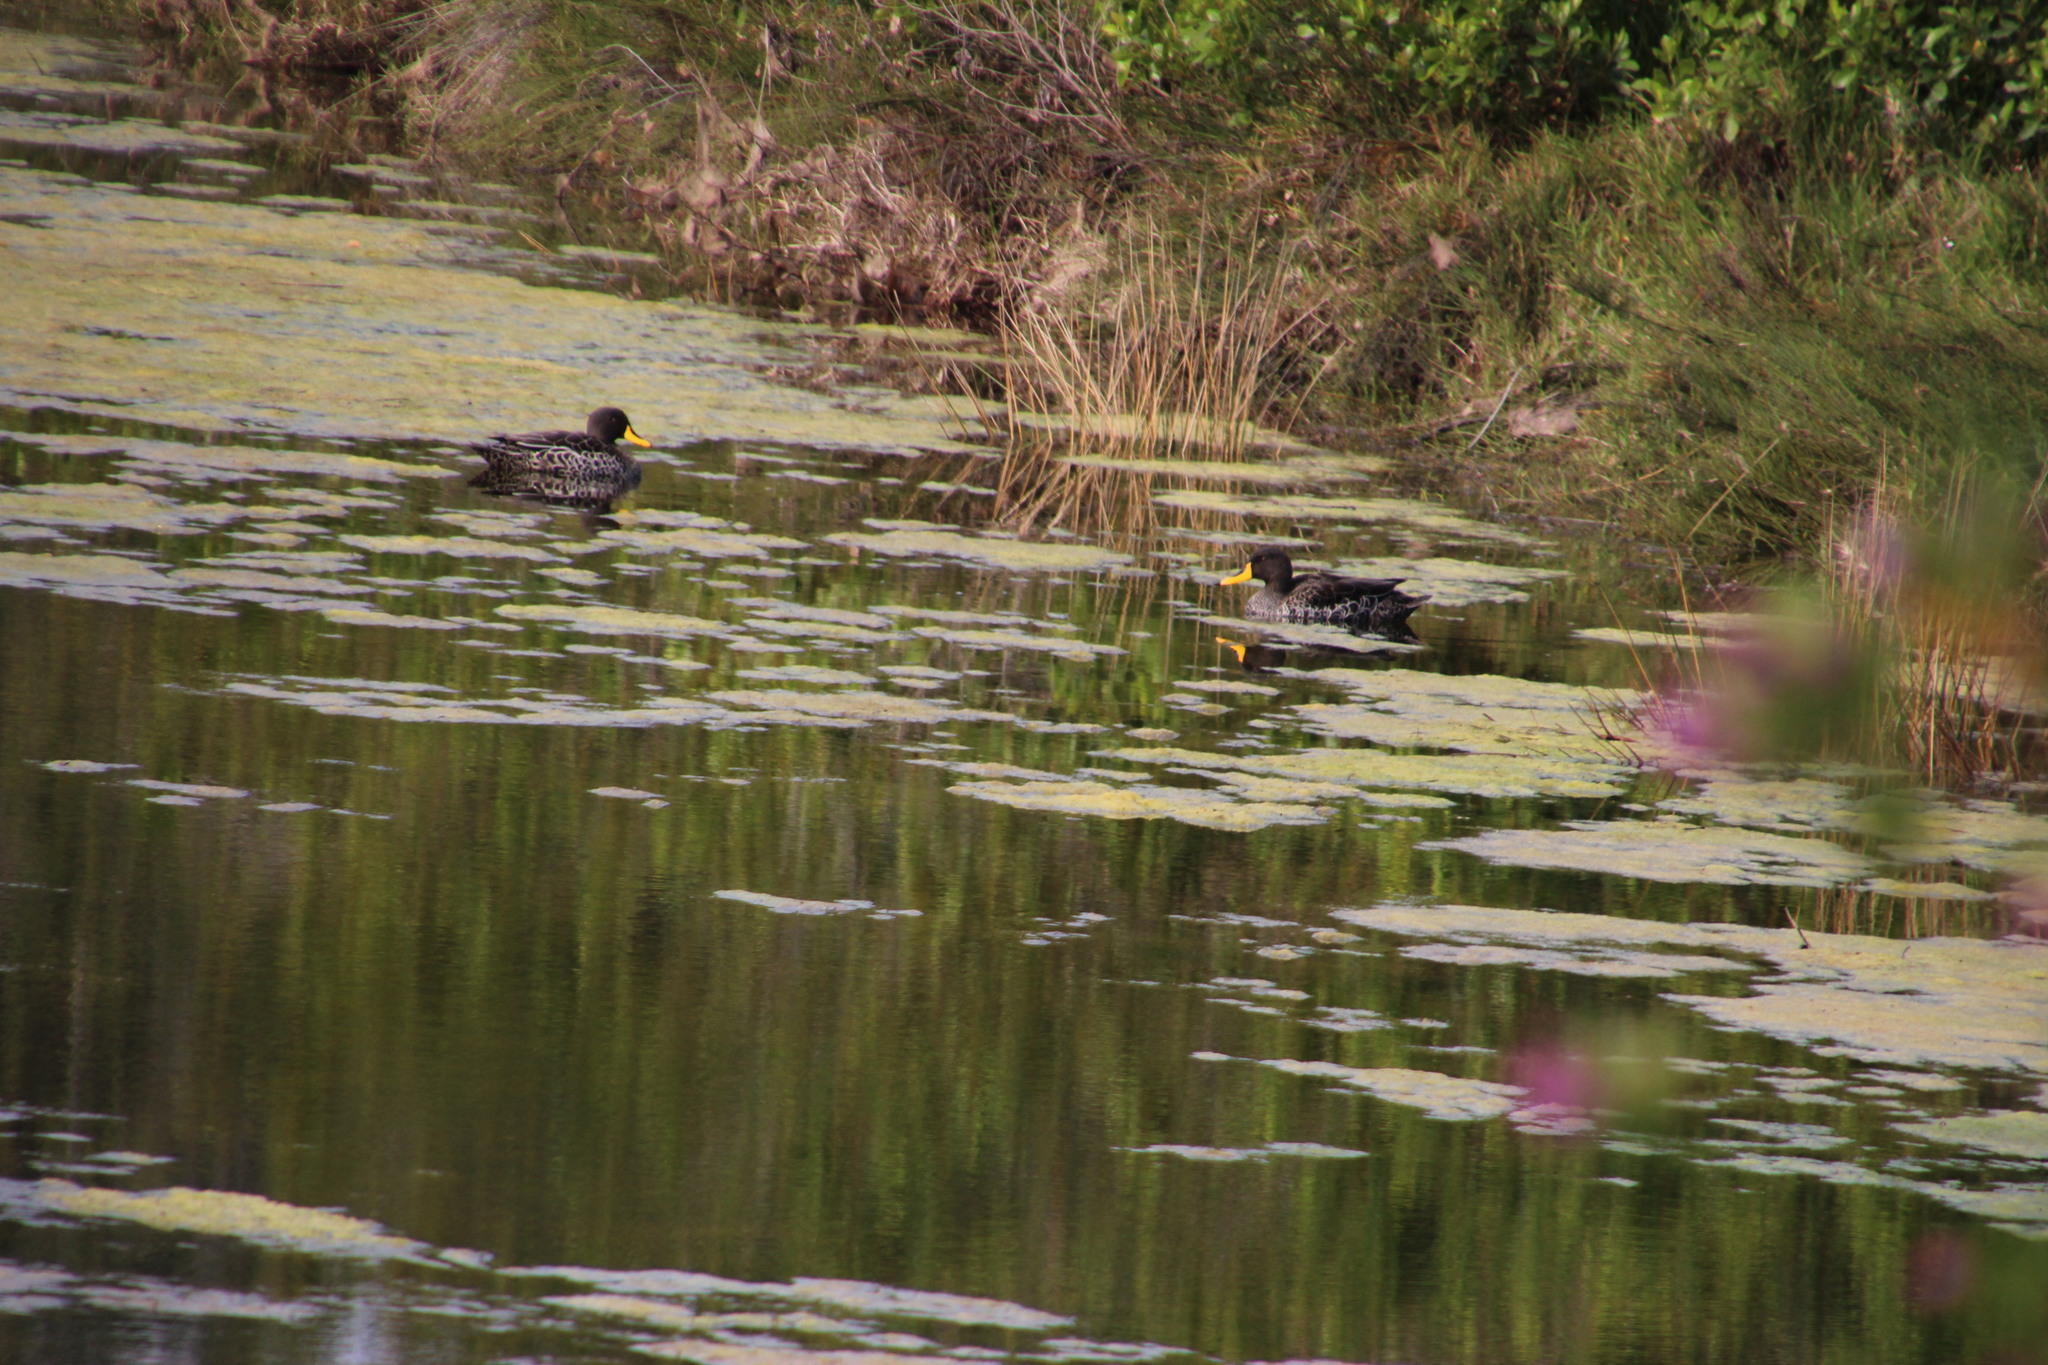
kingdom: Animalia
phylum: Chordata
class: Aves
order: Anseriformes
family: Anatidae
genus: Anas
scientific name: Anas undulata
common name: Yellow-billed duck
